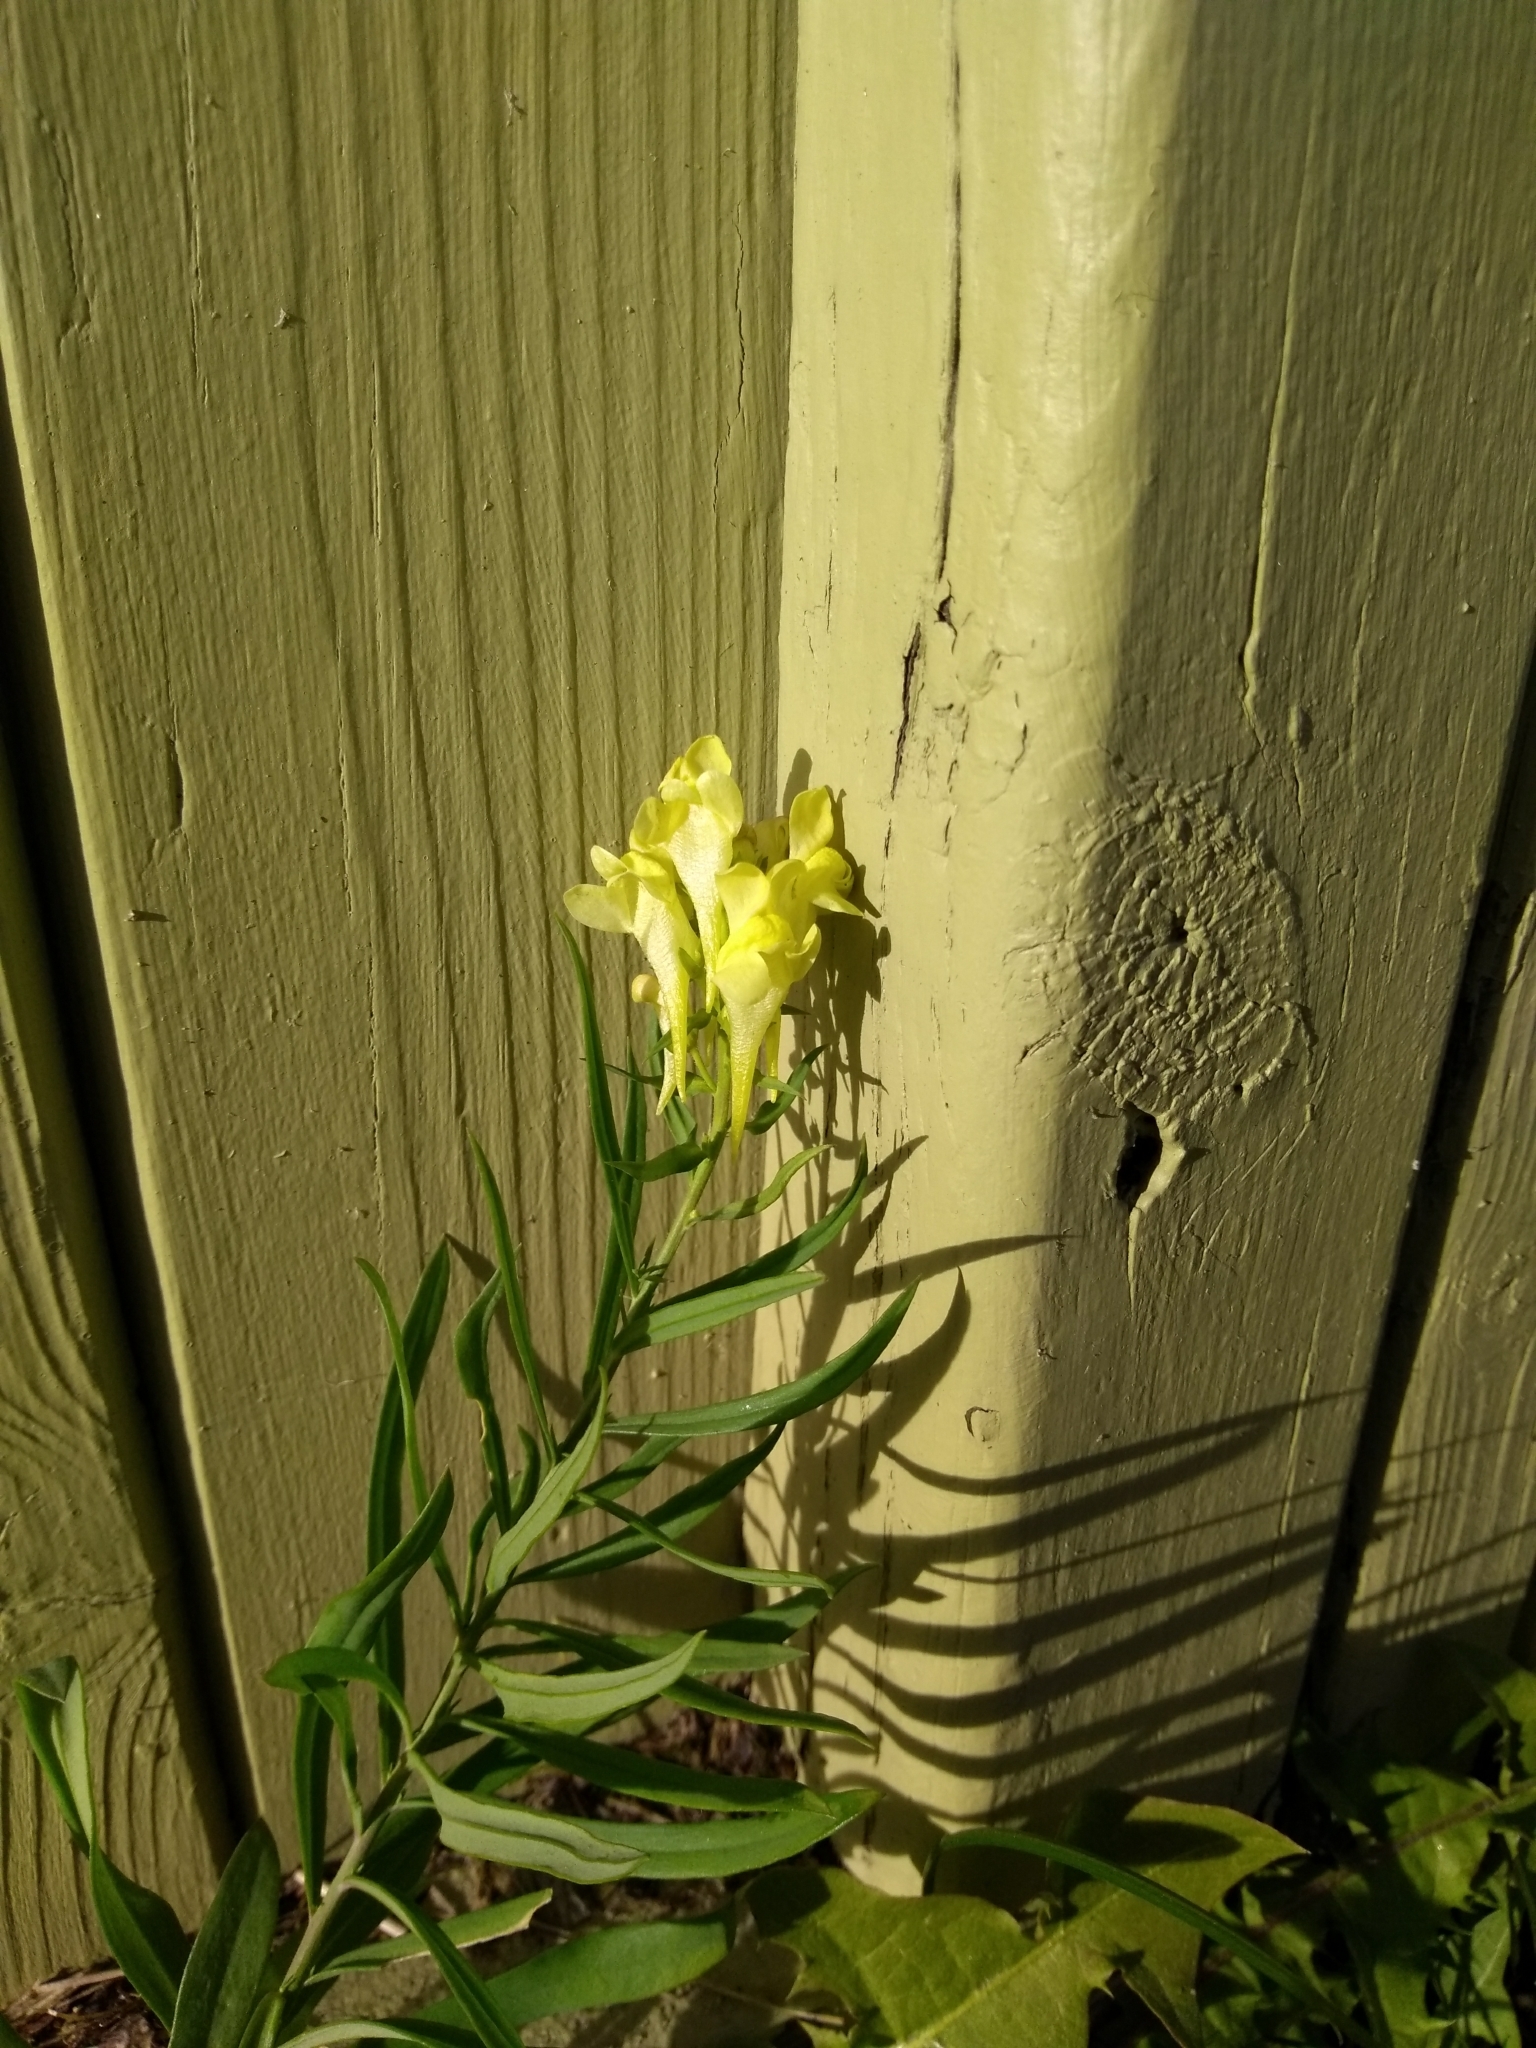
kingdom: Plantae
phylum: Tracheophyta
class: Magnoliopsida
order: Lamiales
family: Plantaginaceae
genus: Linaria
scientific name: Linaria vulgaris
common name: Butter and eggs
